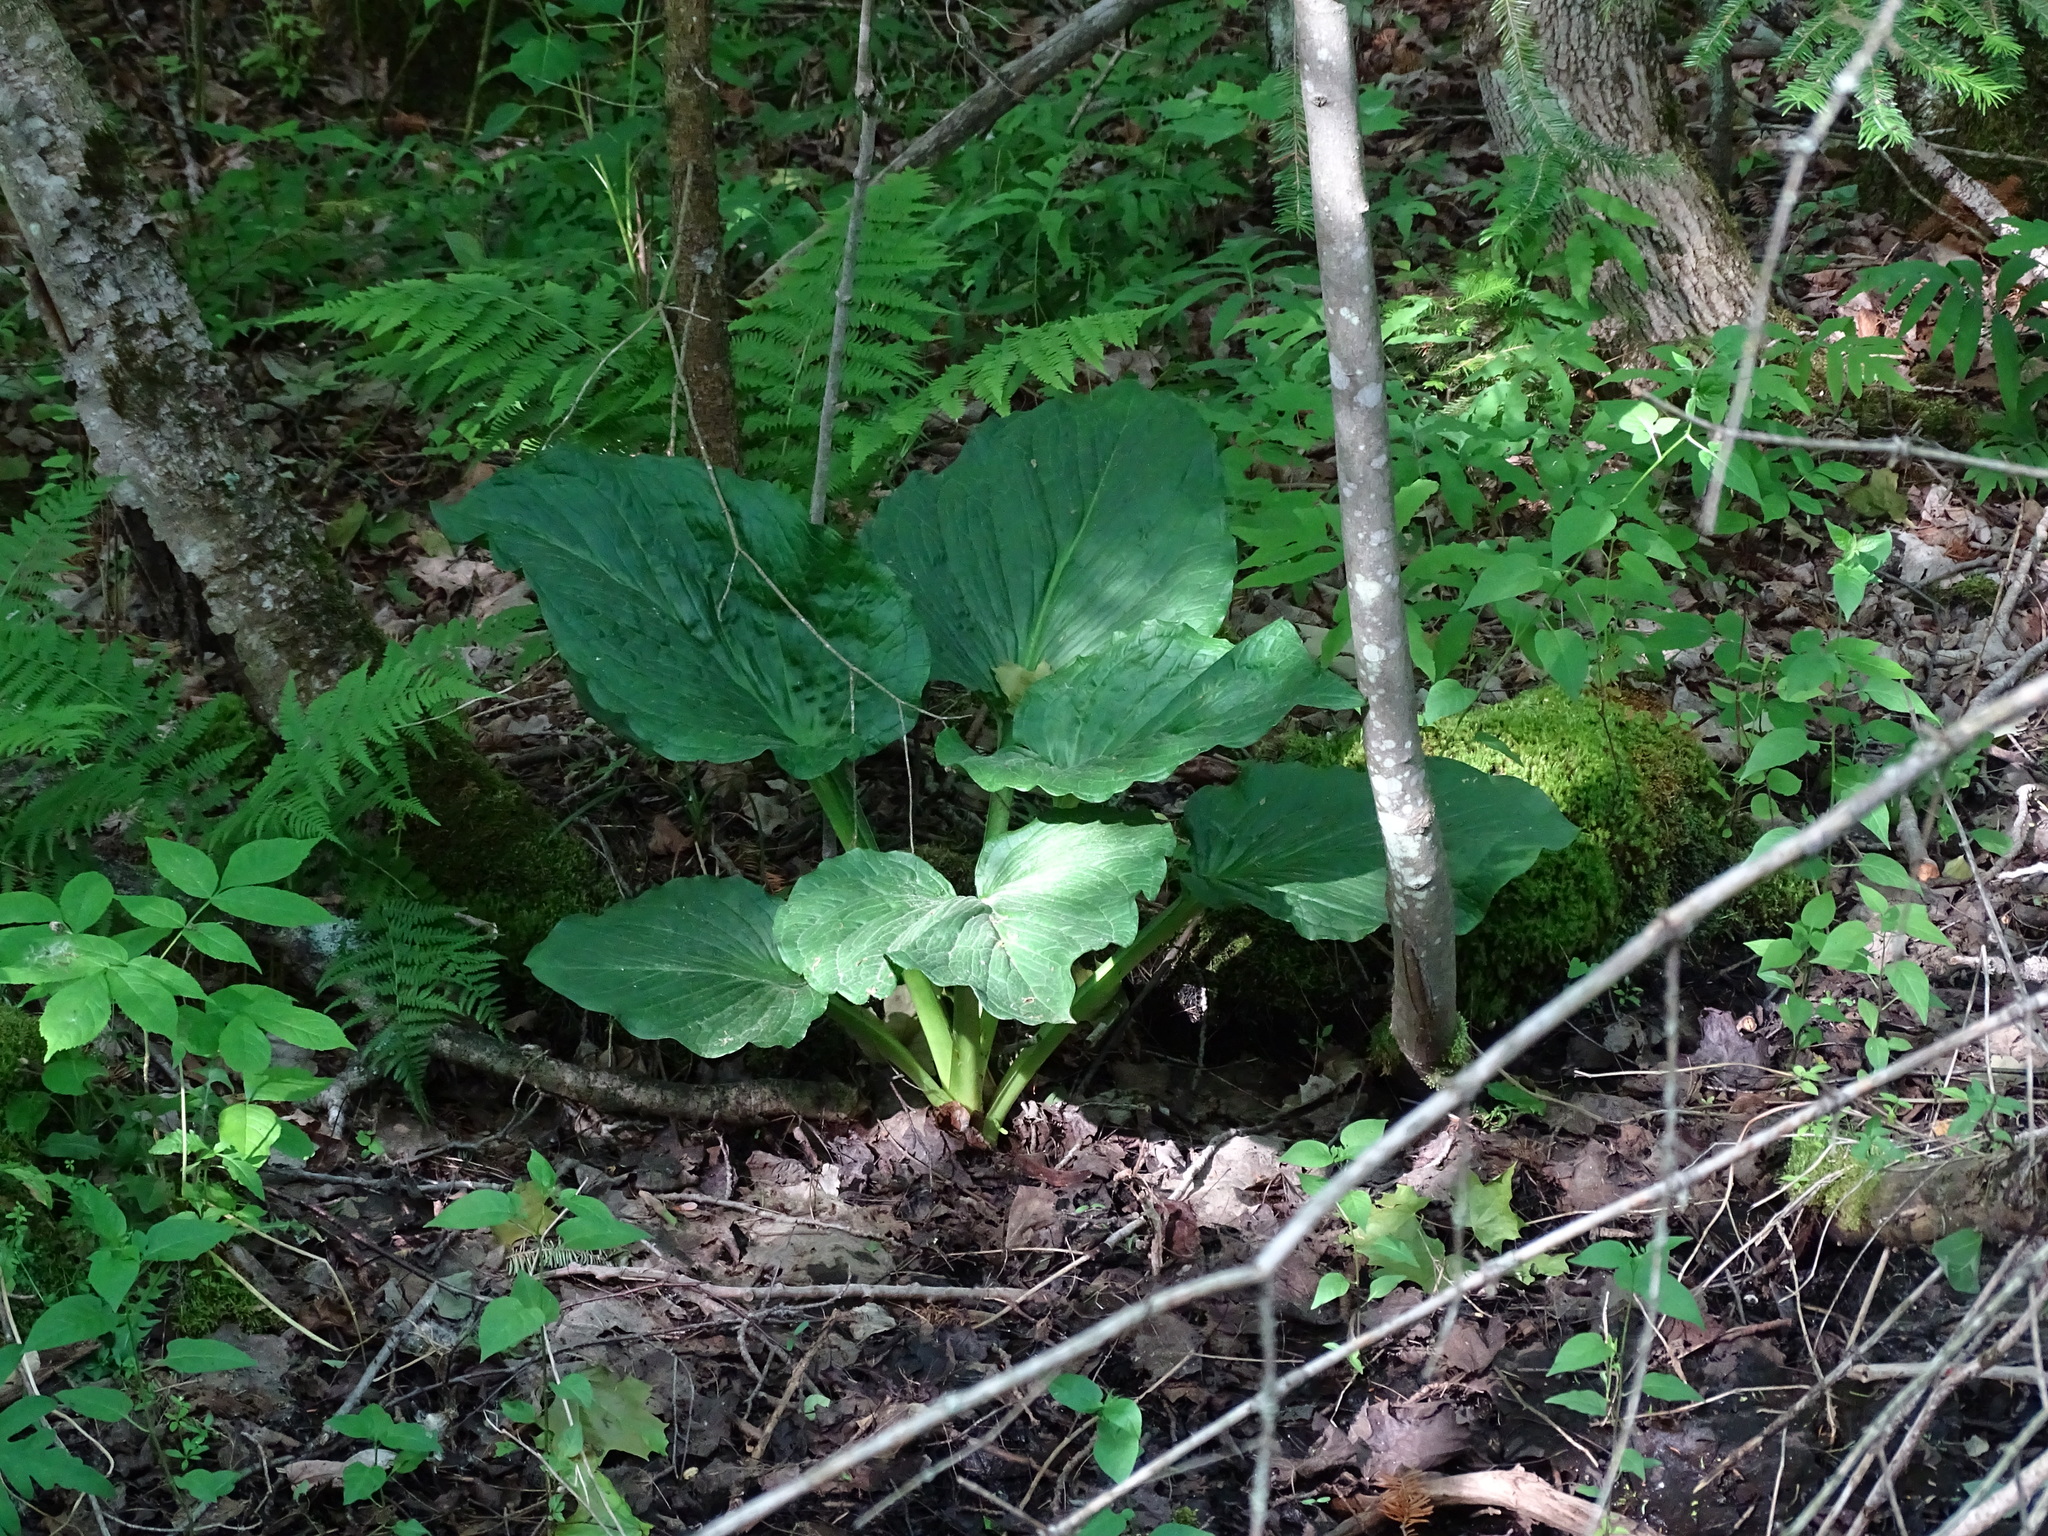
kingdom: Plantae
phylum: Tracheophyta
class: Liliopsida
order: Alismatales
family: Araceae
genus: Symplocarpus
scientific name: Symplocarpus foetidus
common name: Eastern skunk cabbage
